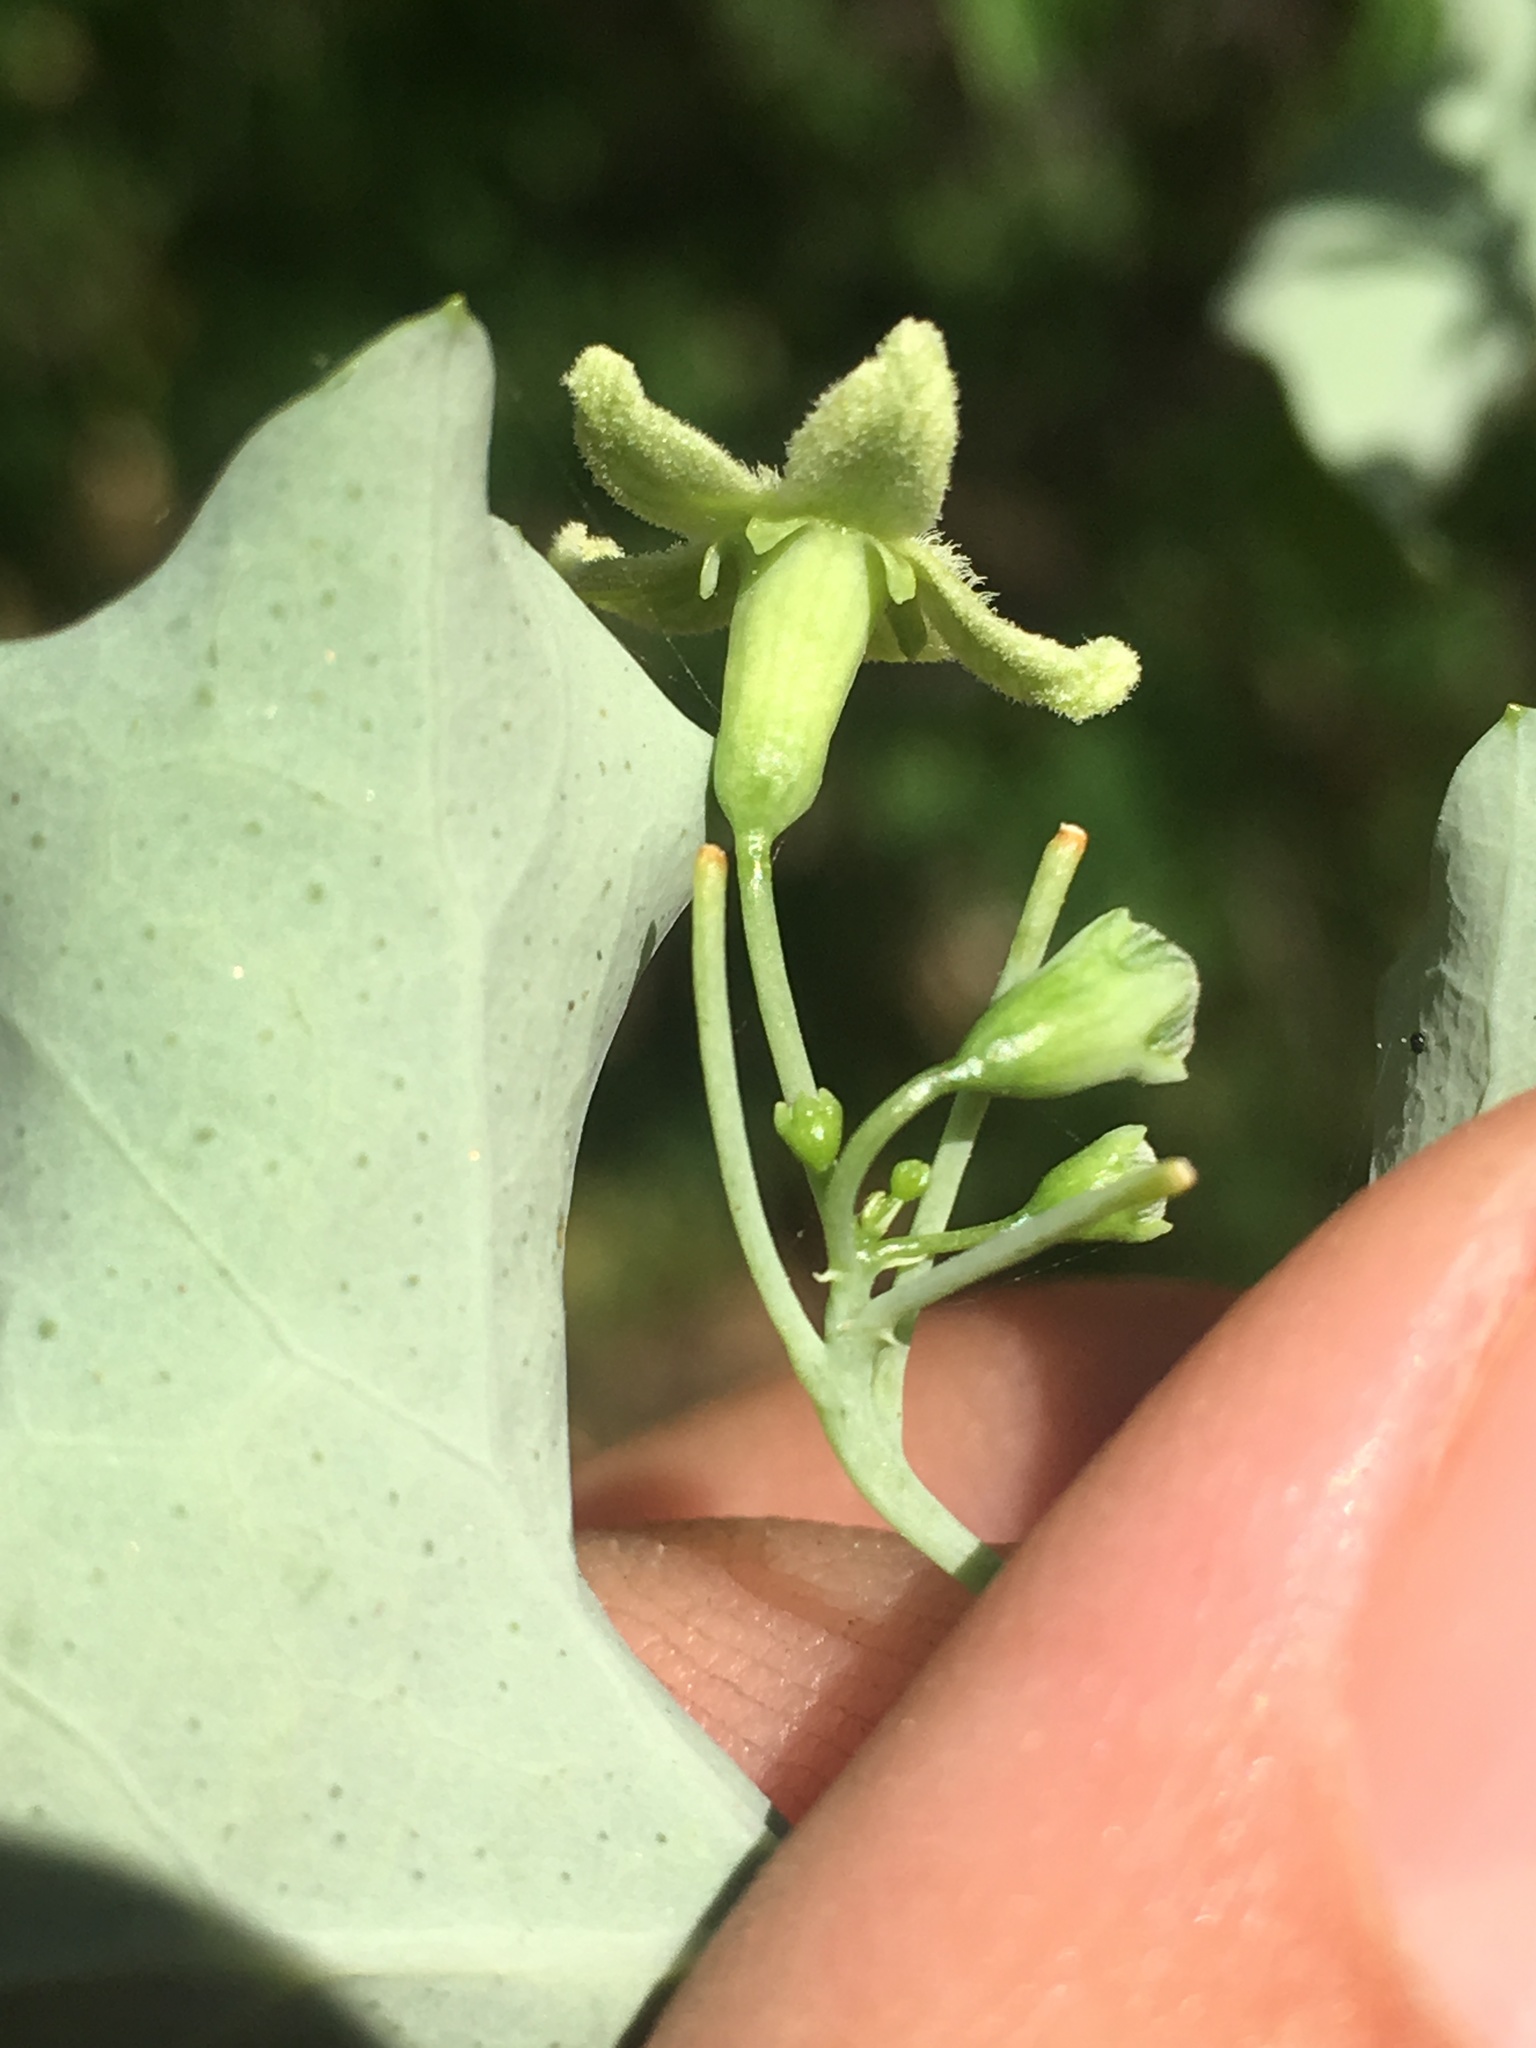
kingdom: Plantae
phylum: Tracheophyta
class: Magnoliopsida
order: Cucurbitales
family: Cucurbitaceae
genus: Ibervillea
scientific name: Ibervillea sonorae
